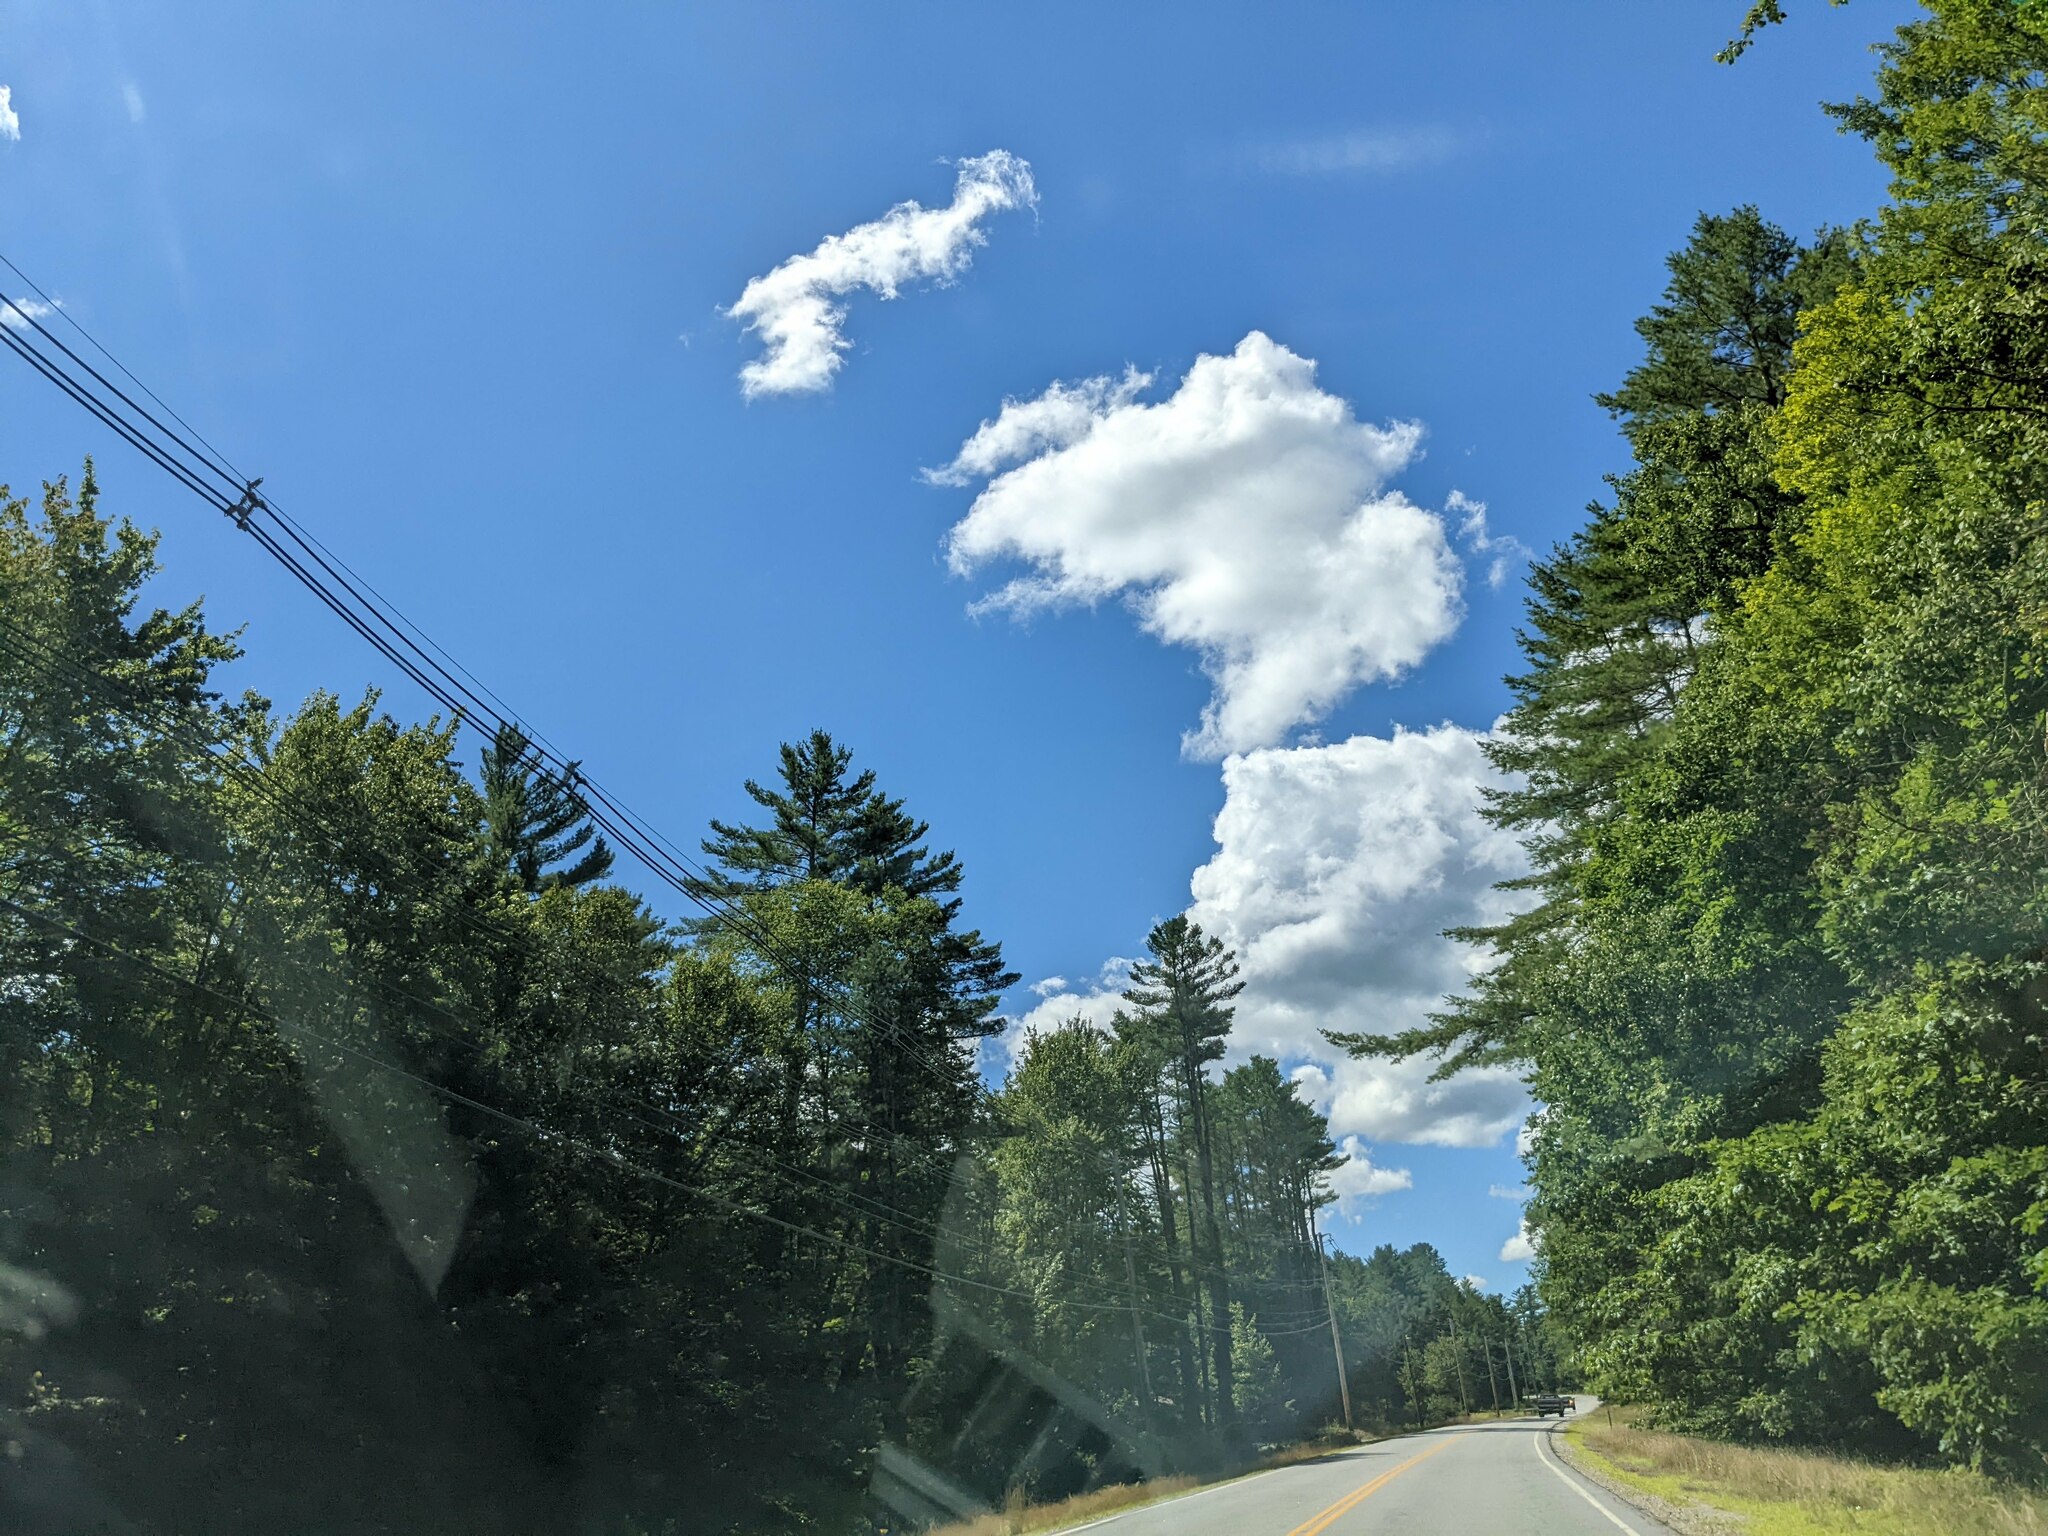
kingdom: Plantae
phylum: Tracheophyta
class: Pinopsida
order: Pinales
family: Pinaceae
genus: Pinus
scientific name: Pinus strobus
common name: Weymouth pine
